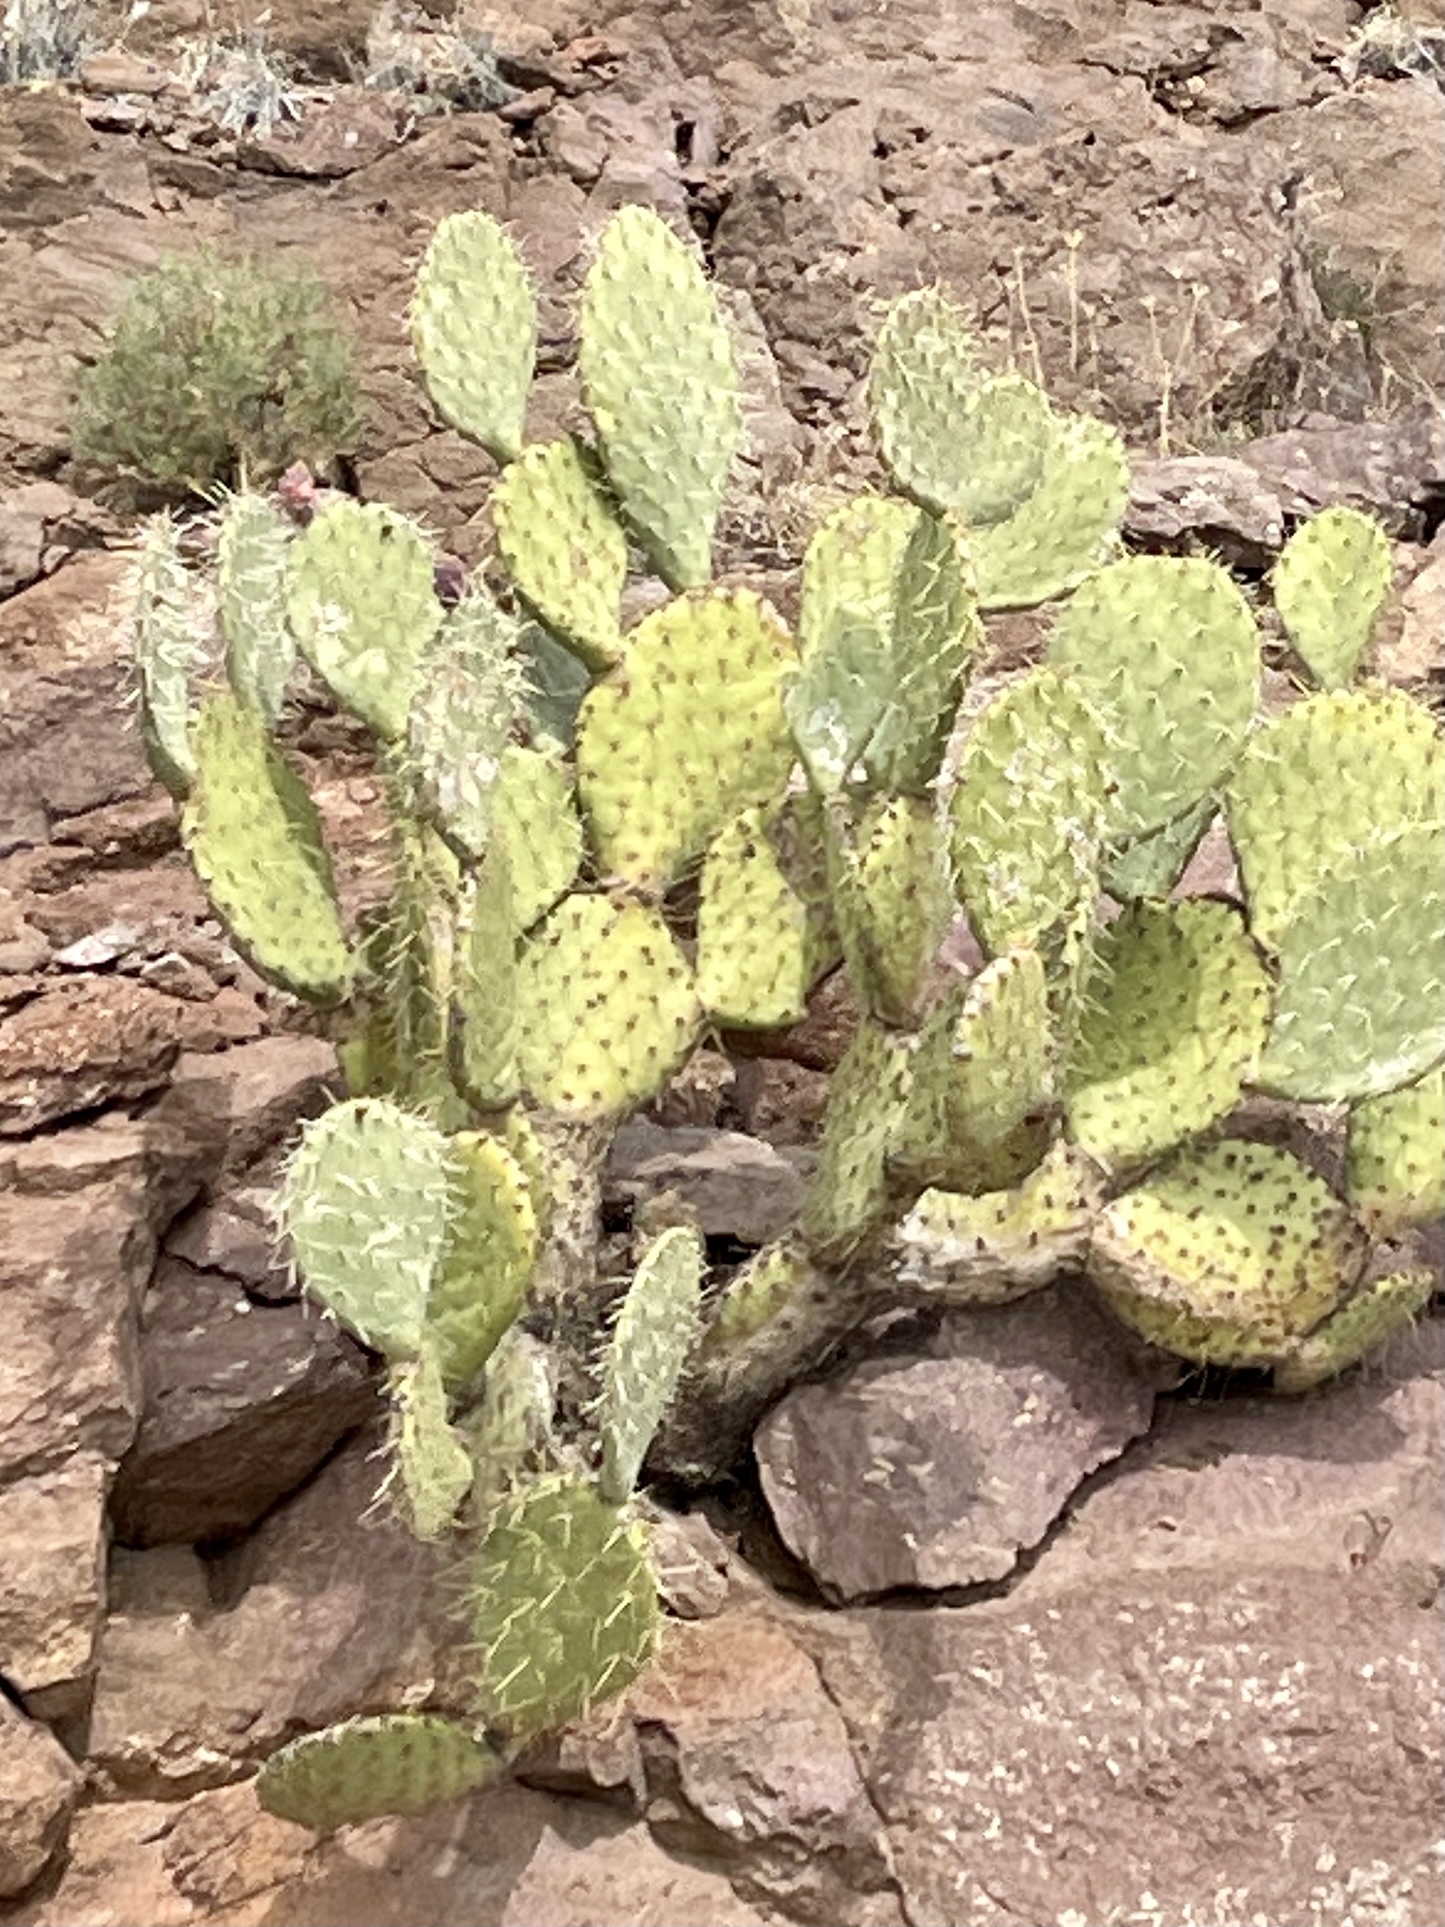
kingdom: Plantae
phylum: Tracheophyta
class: Magnoliopsida
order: Caryophyllales
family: Cactaceae
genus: Opuntia
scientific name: Opuntia engelmannii
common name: Cactus-apple
